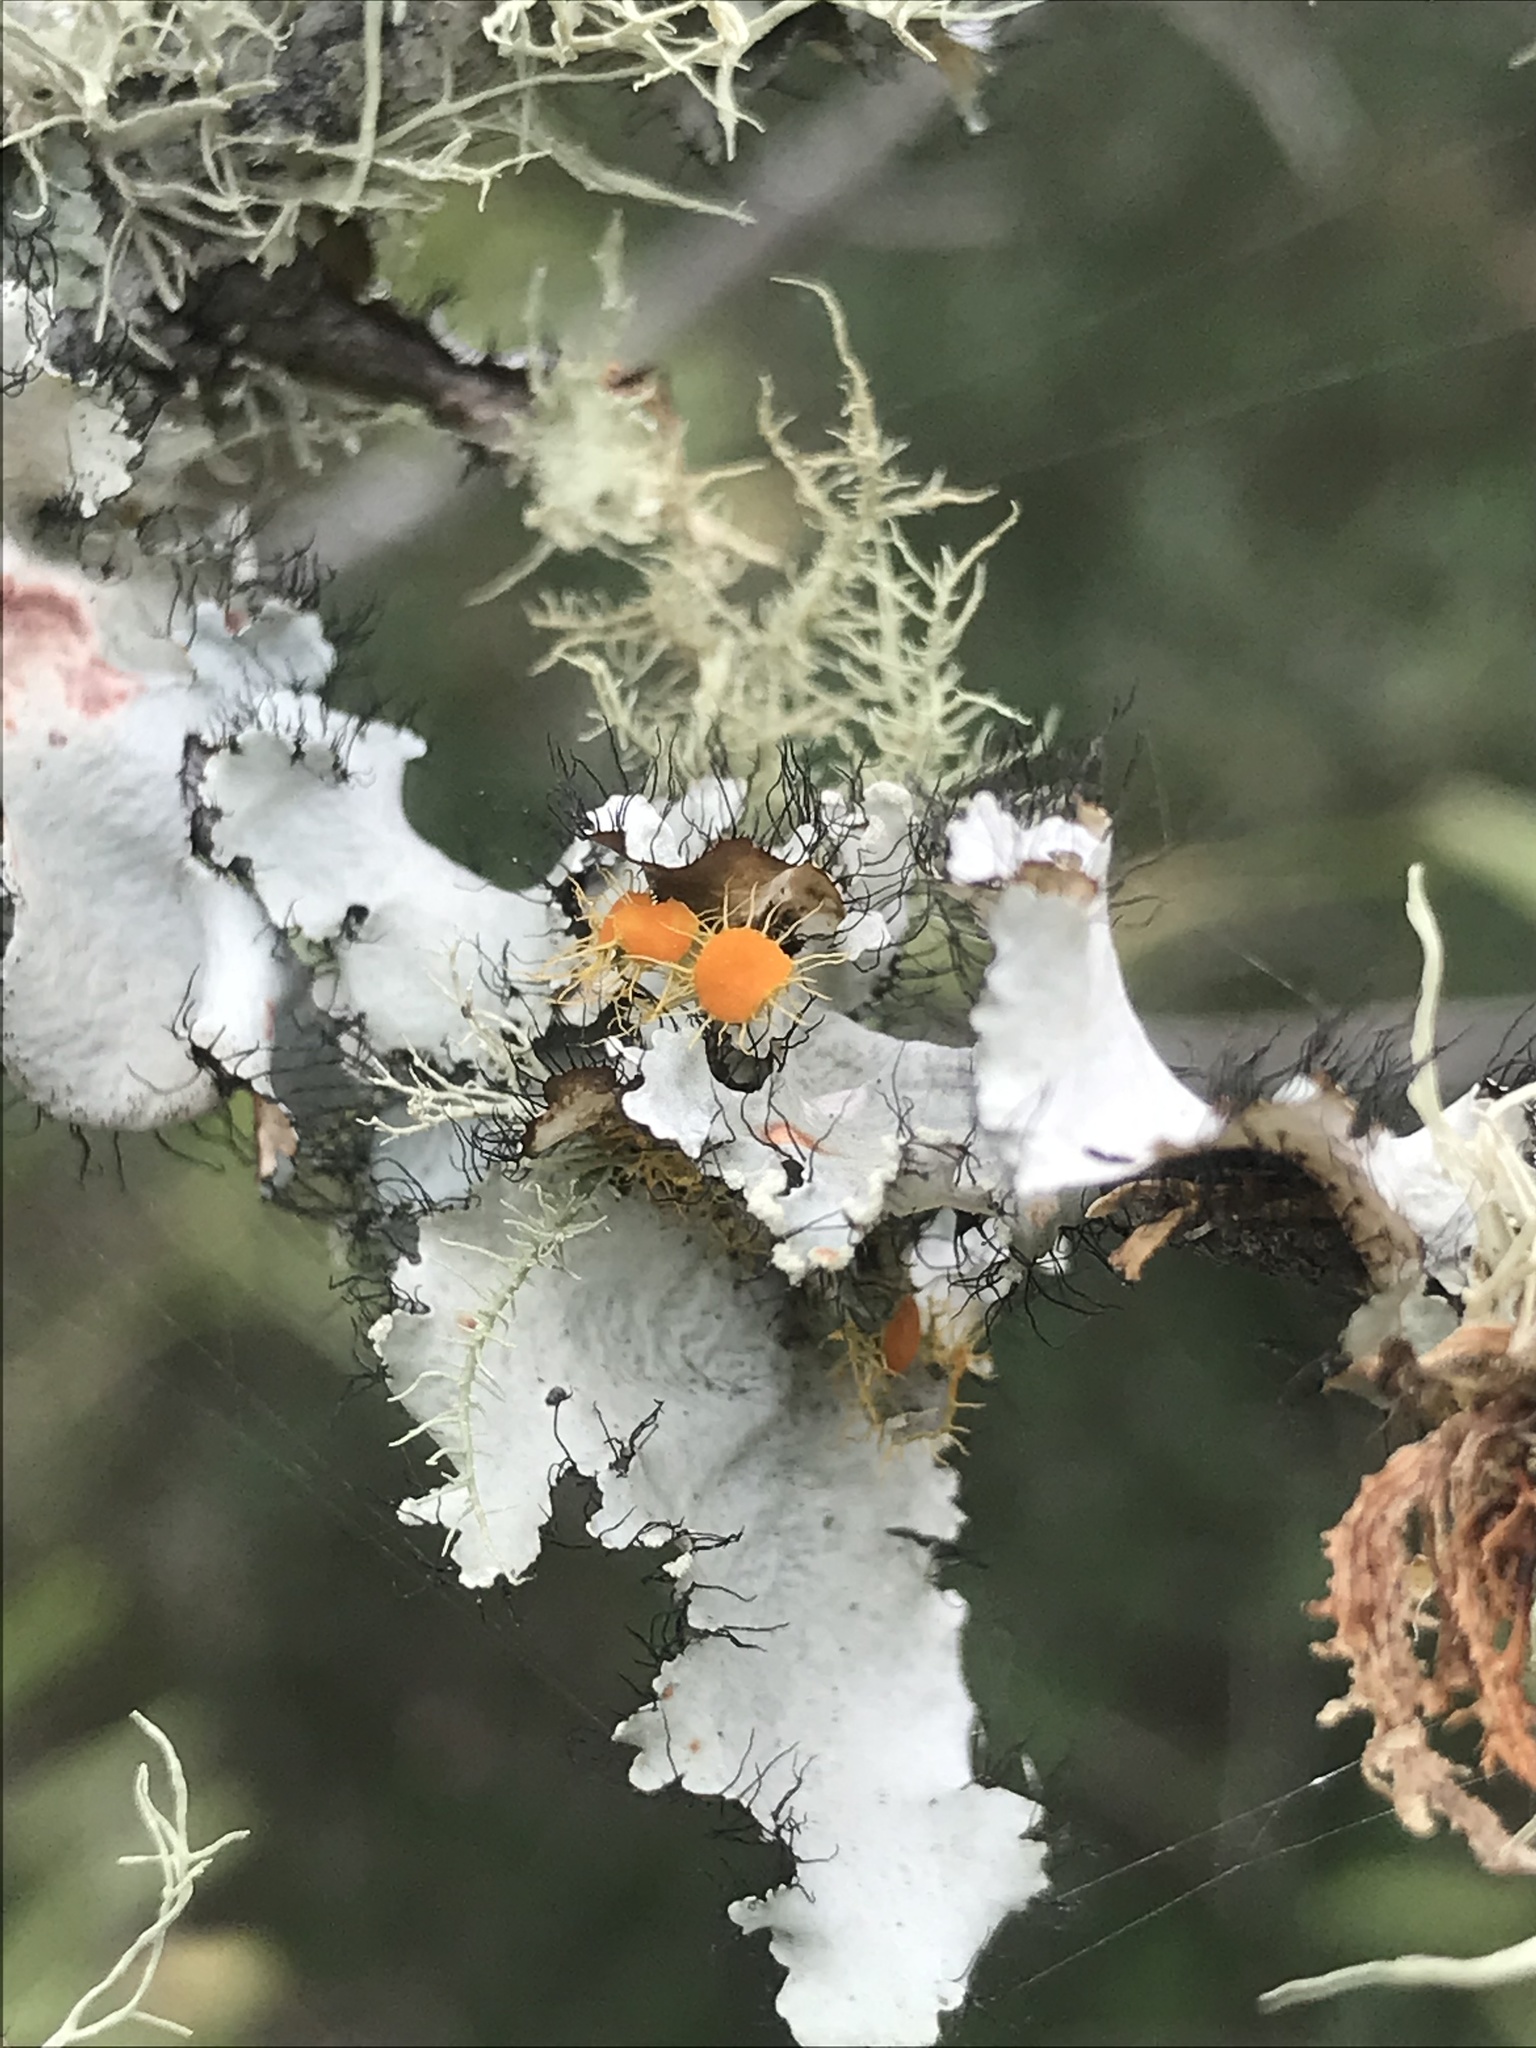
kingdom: Fungi
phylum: Ascomycota
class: Lecanoromycetes
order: Teloschistales
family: Teloschistaceae
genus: Niorma
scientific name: Niorma chrysophthalma
